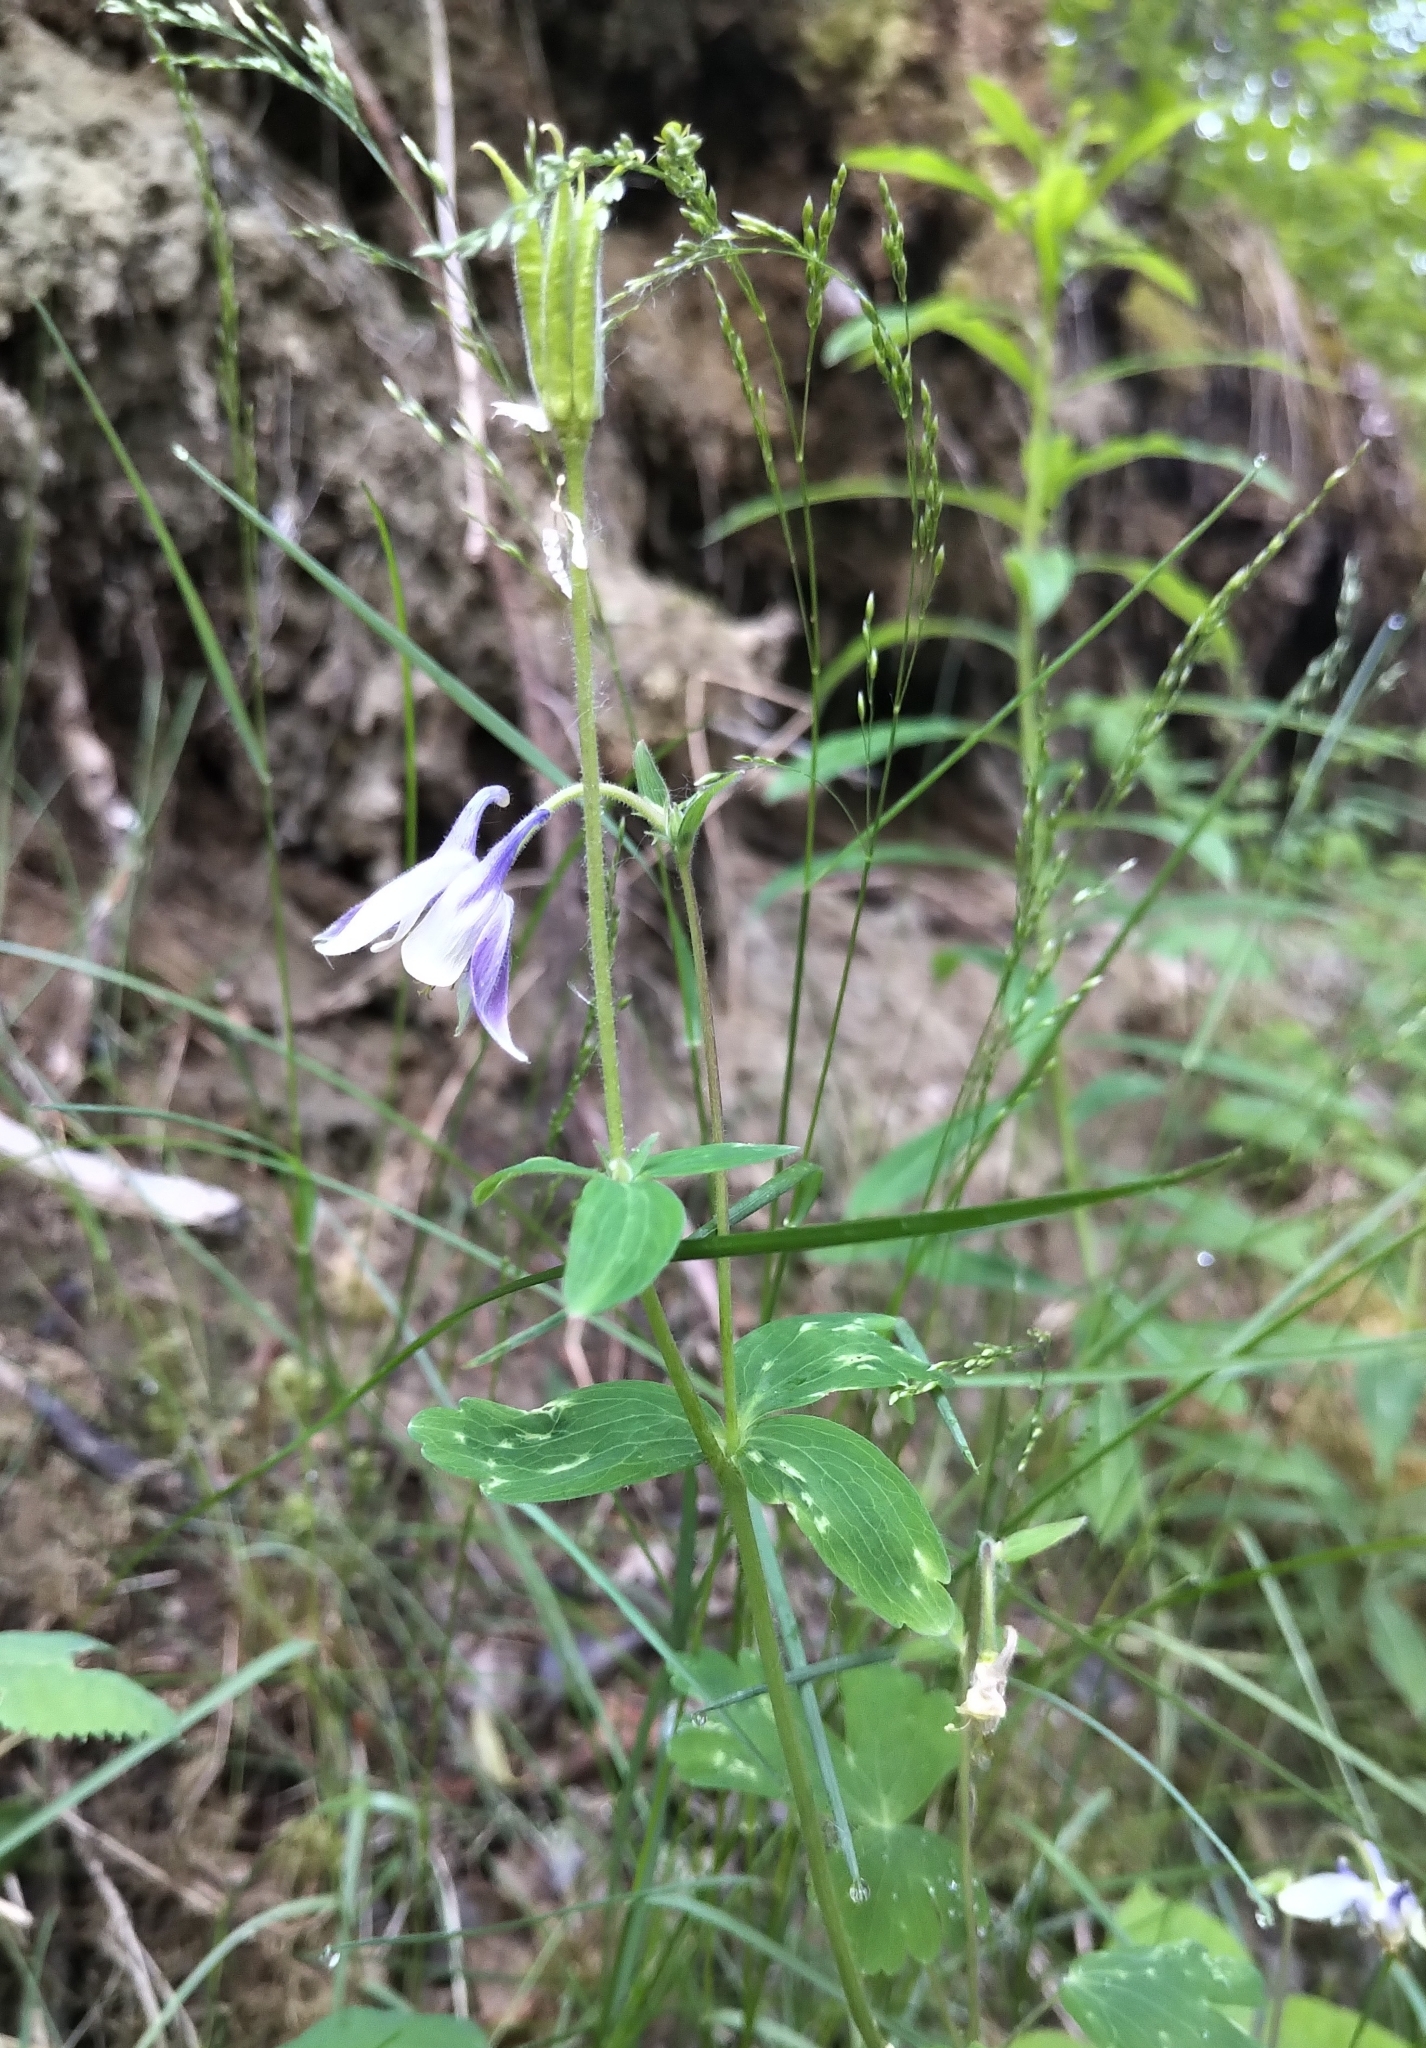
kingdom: Plantae
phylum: Tracheophyta
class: Magnoliopsida
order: Ranunculales
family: Ranunculaceae
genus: Aquilegia
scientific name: Aquilegia brevistyla
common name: Yukon columbine
